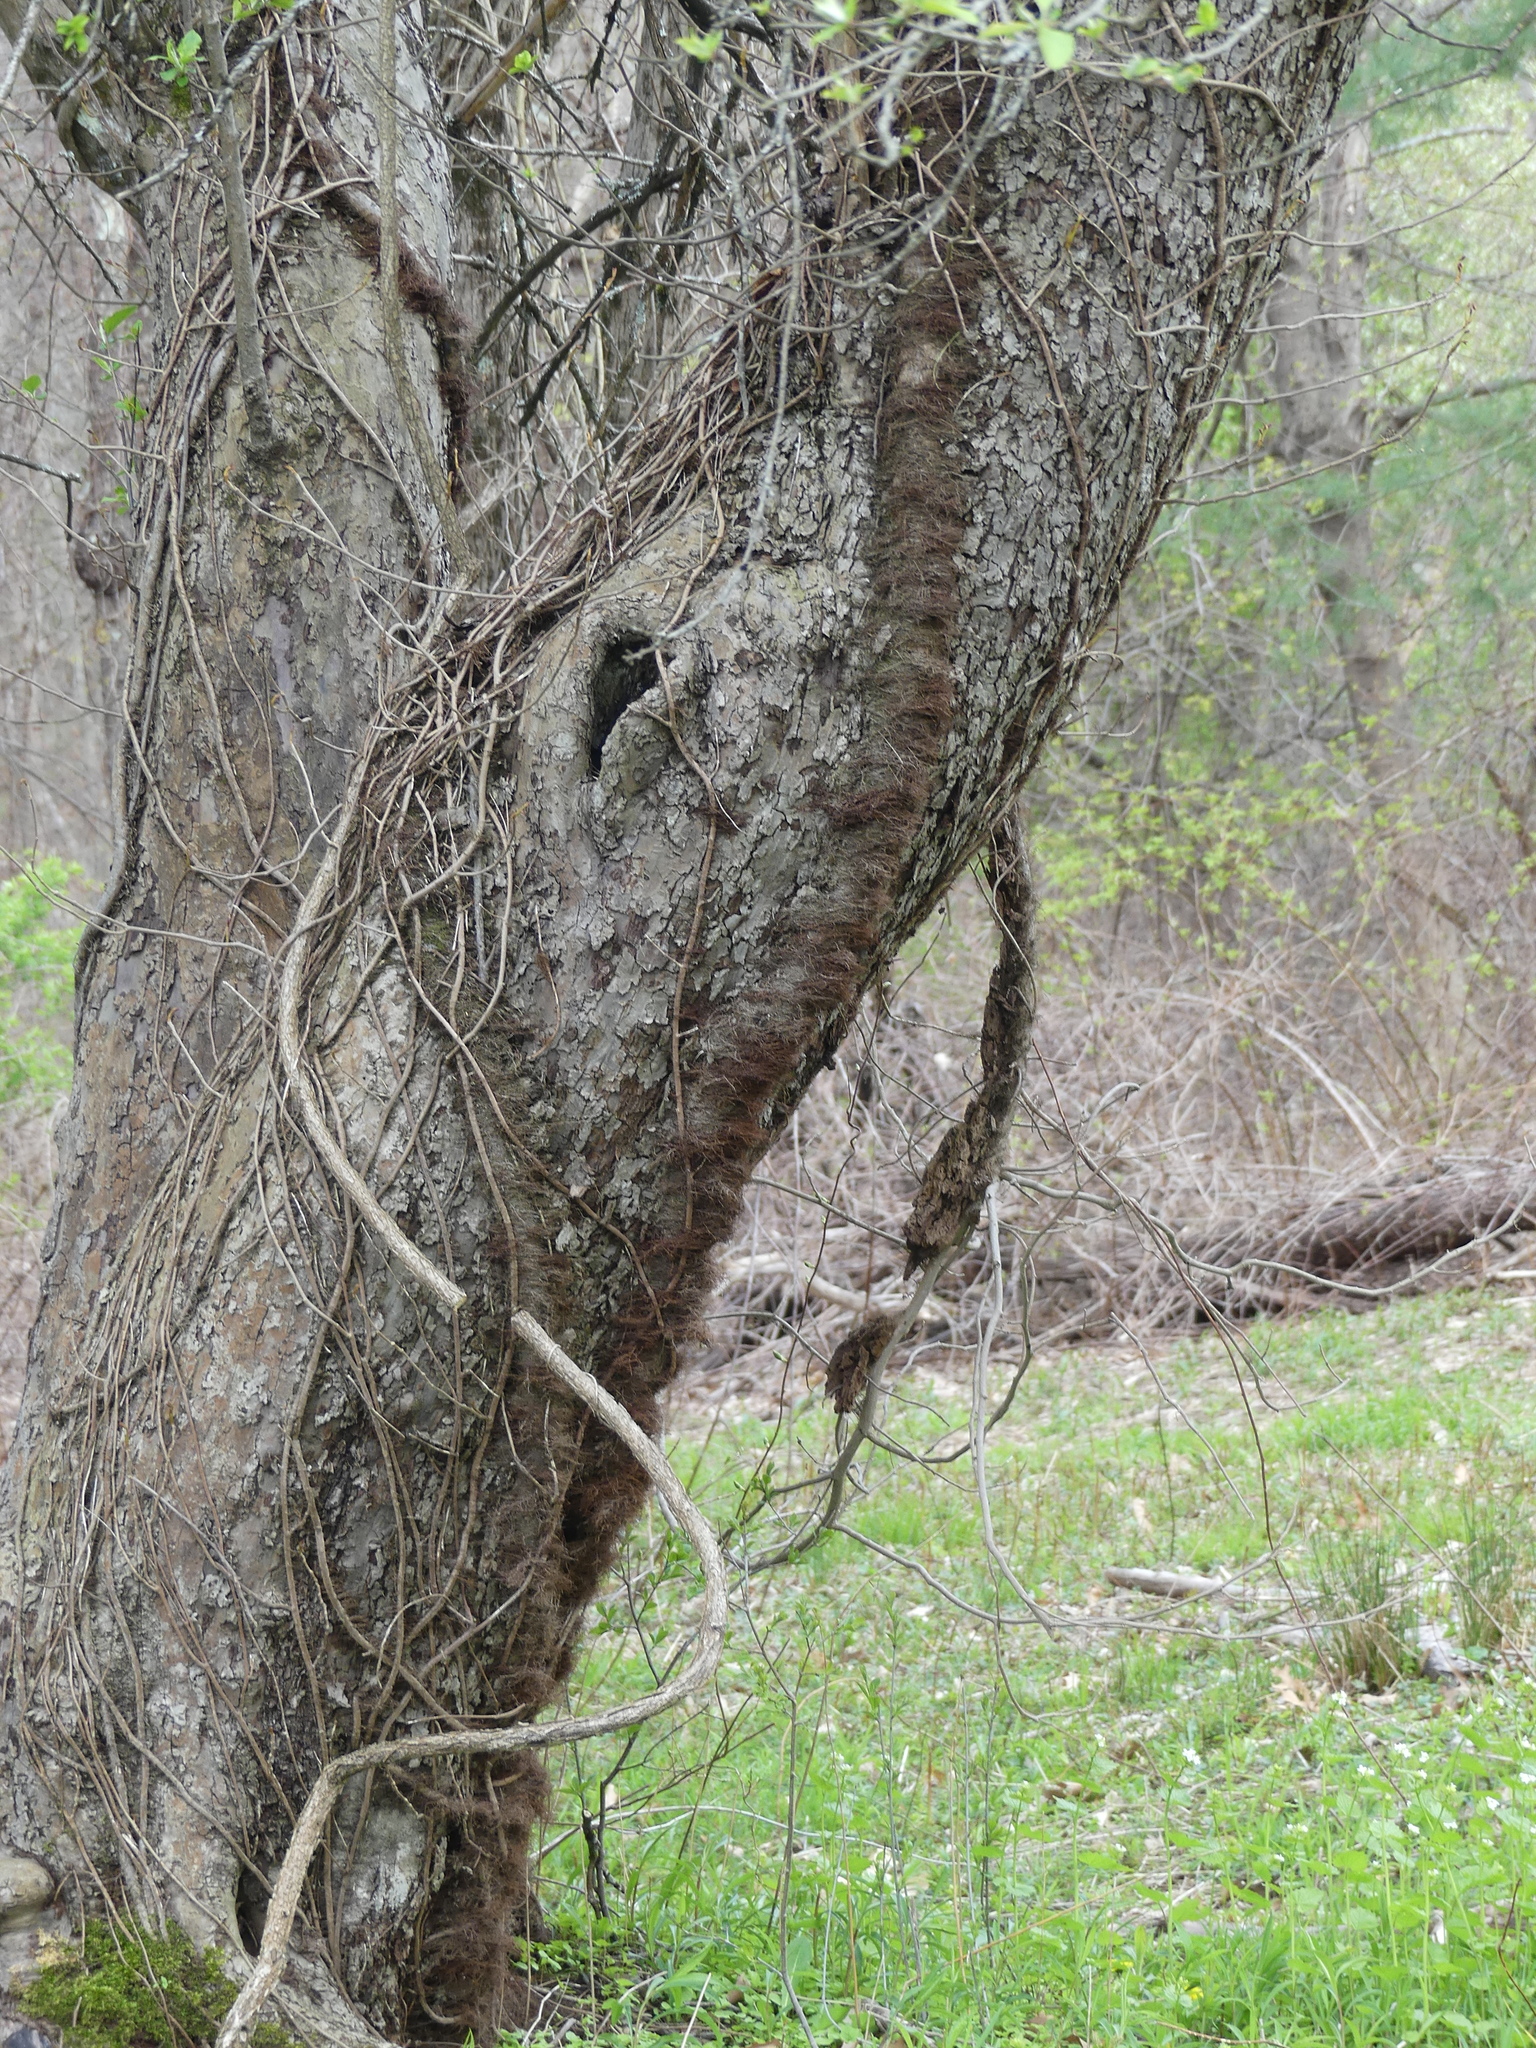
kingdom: Plantae
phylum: Tracheophyta
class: Magnoliopsida
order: Sapindales
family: Anacardiaceae
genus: Toxicodendron
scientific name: Toxicodendron radicans
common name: Poison ivy
